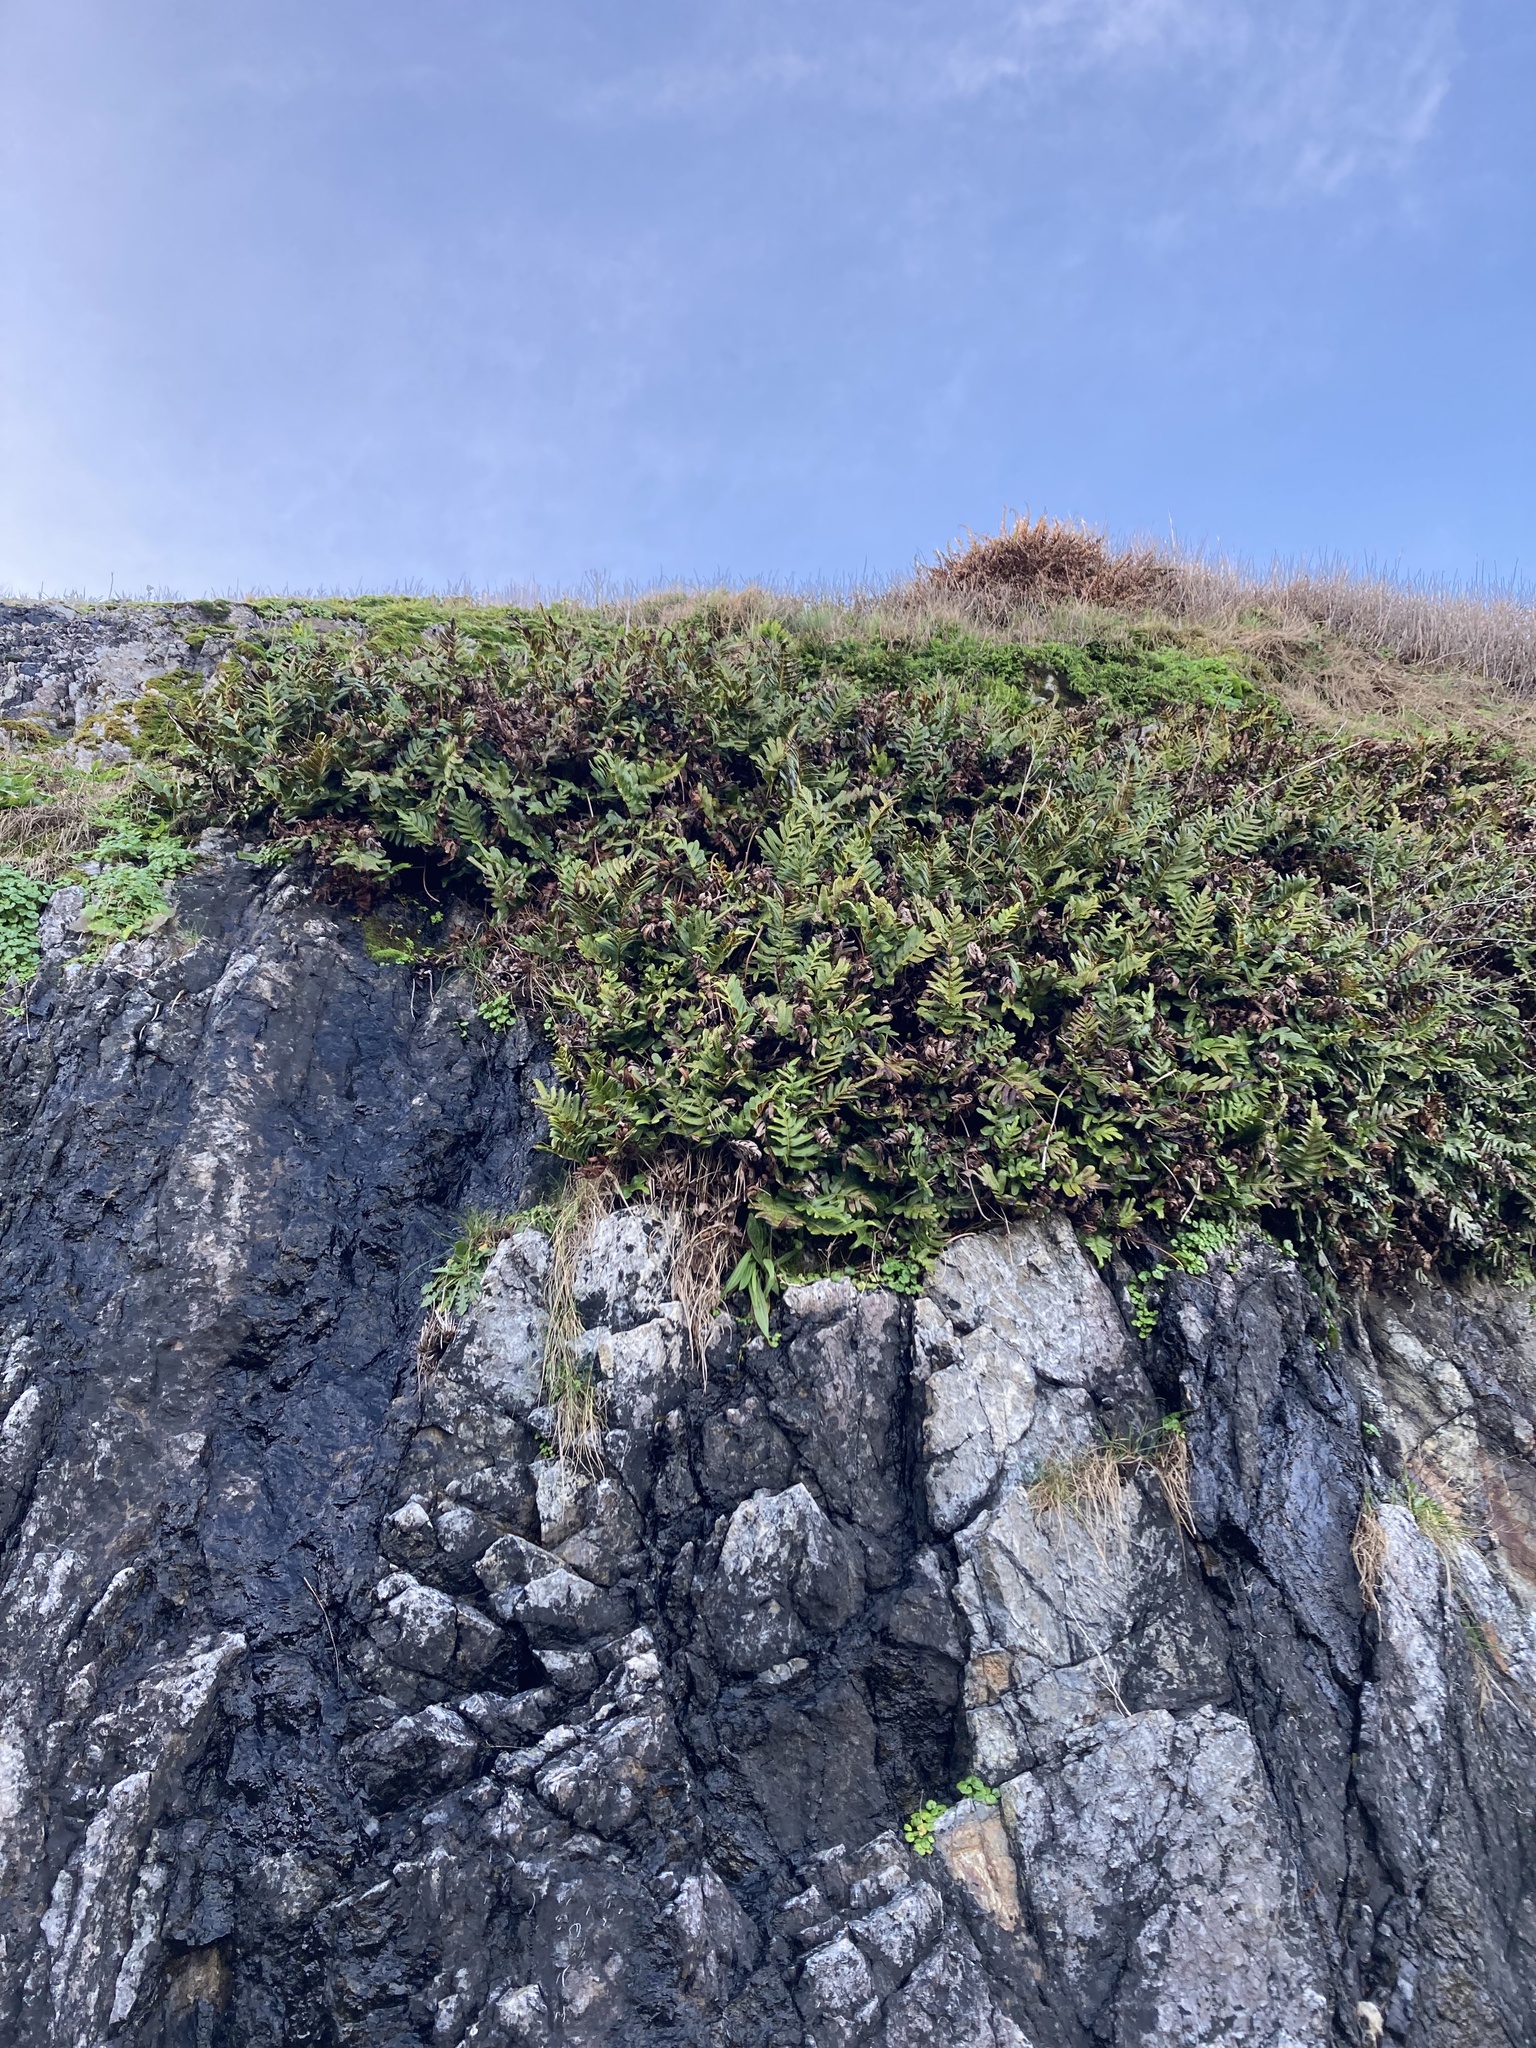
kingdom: Plantae
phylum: Tracheophyta
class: Polypodiopsida
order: Polypodiales
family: Polypodiaceae
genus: Polypodium
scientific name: Polypodium scouleri
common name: Scouler's polypody
